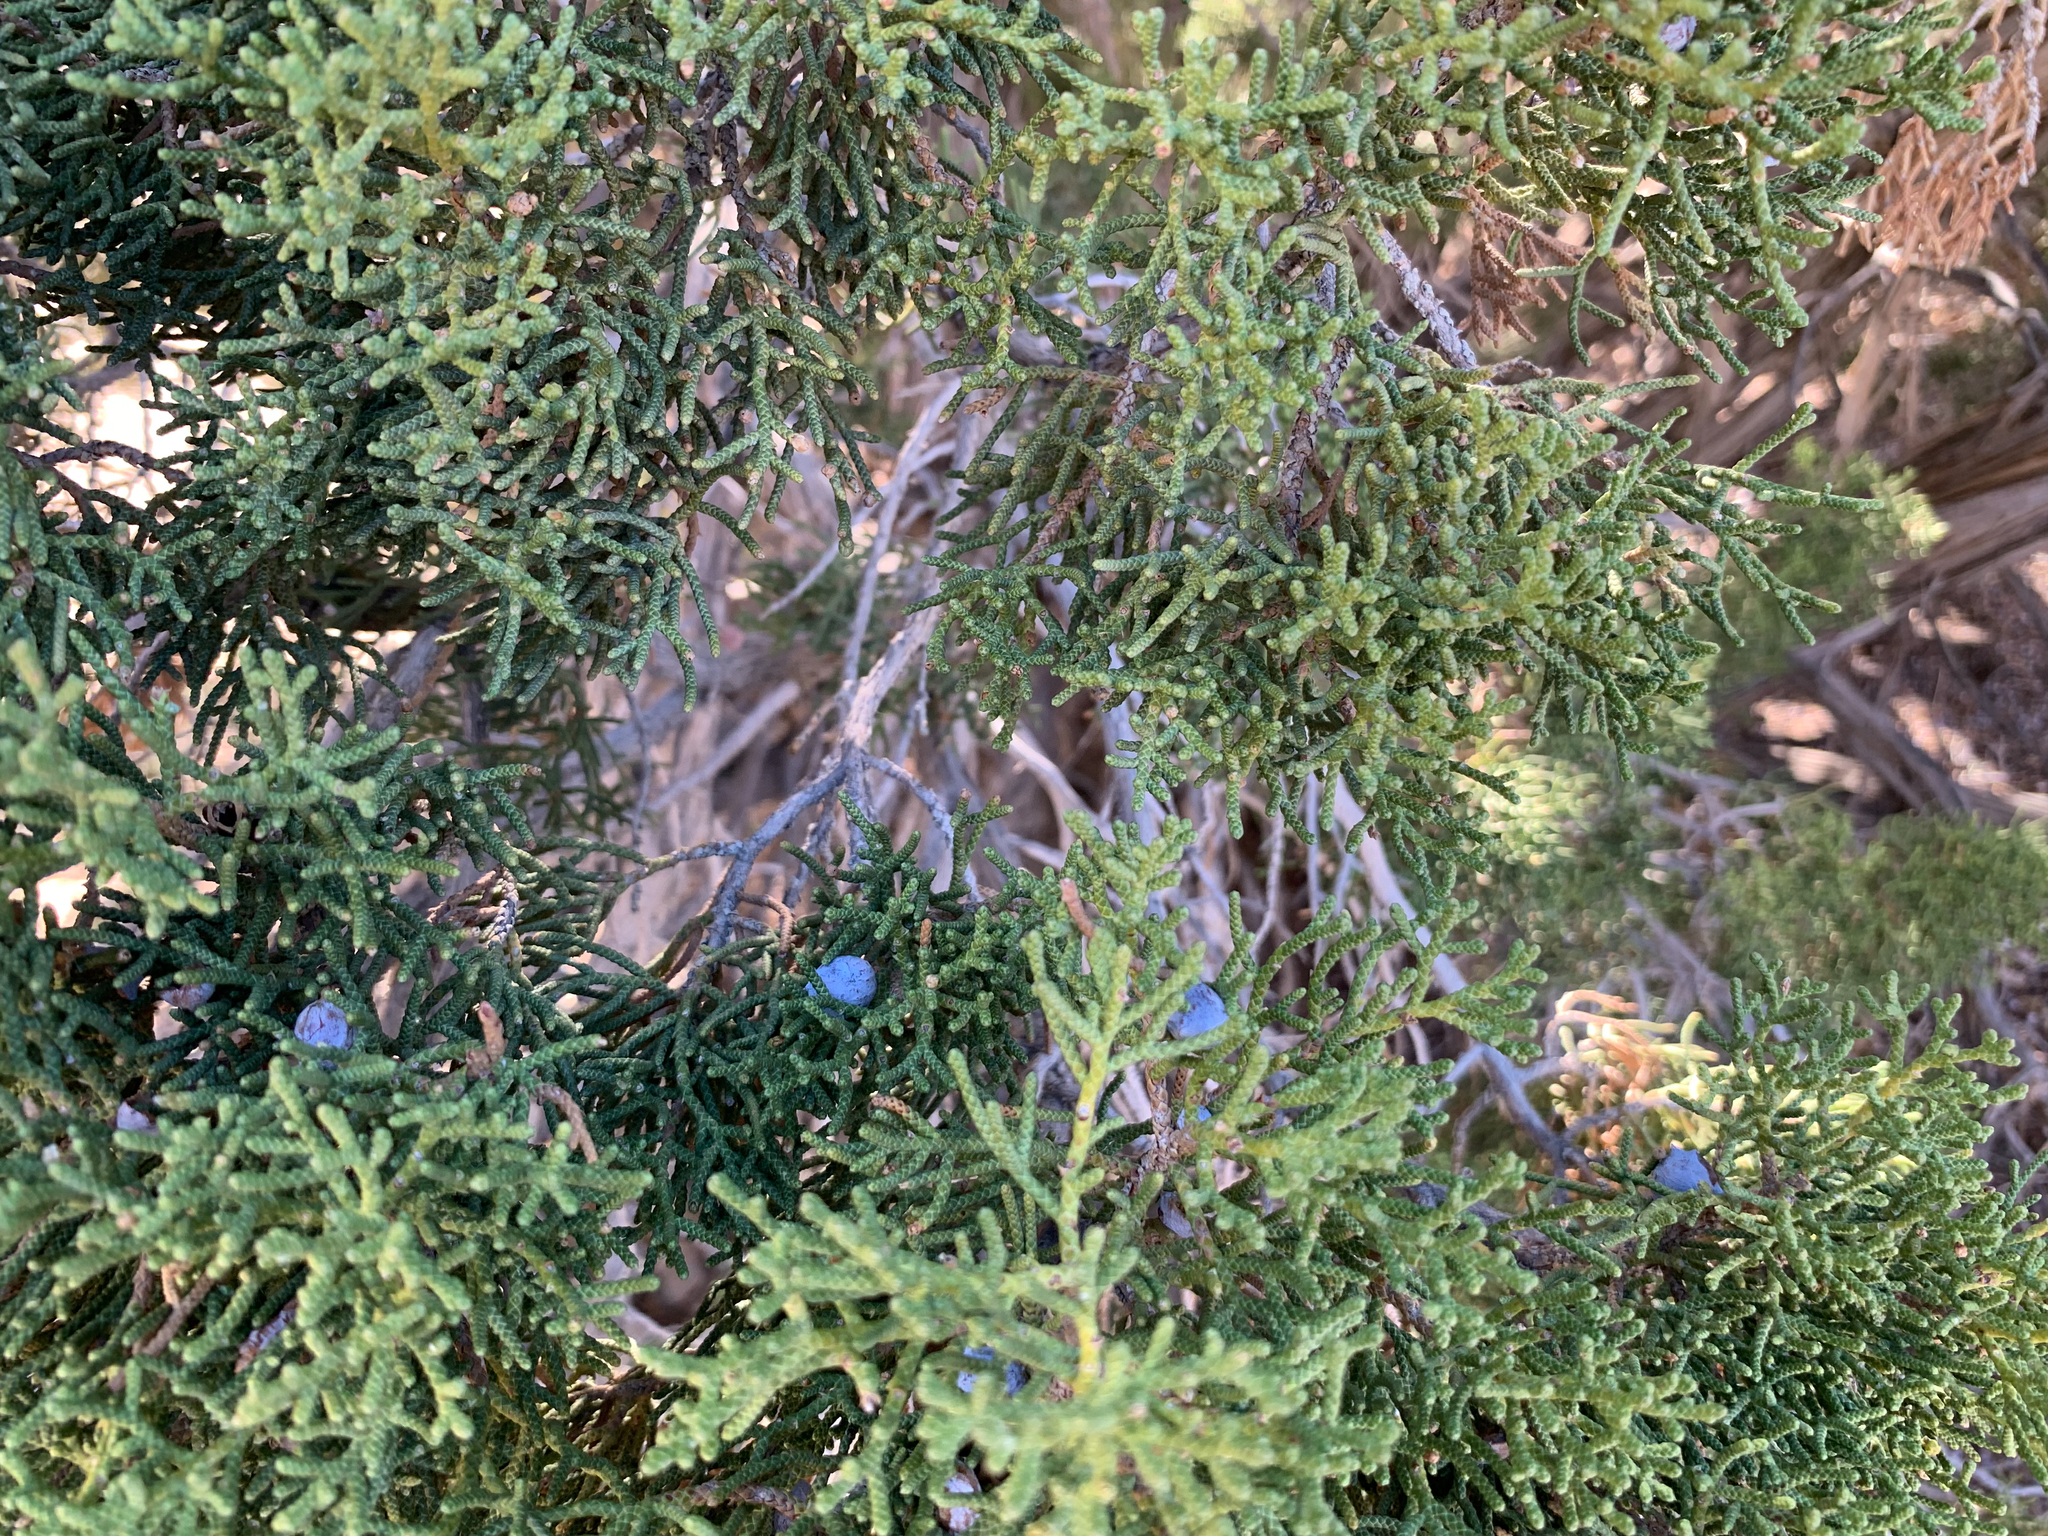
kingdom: Plantae
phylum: Tracheophyta
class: Pinopsida
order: Pinales
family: Cupressaceae
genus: Juniperus
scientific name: Juniperus californica
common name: California juniper
